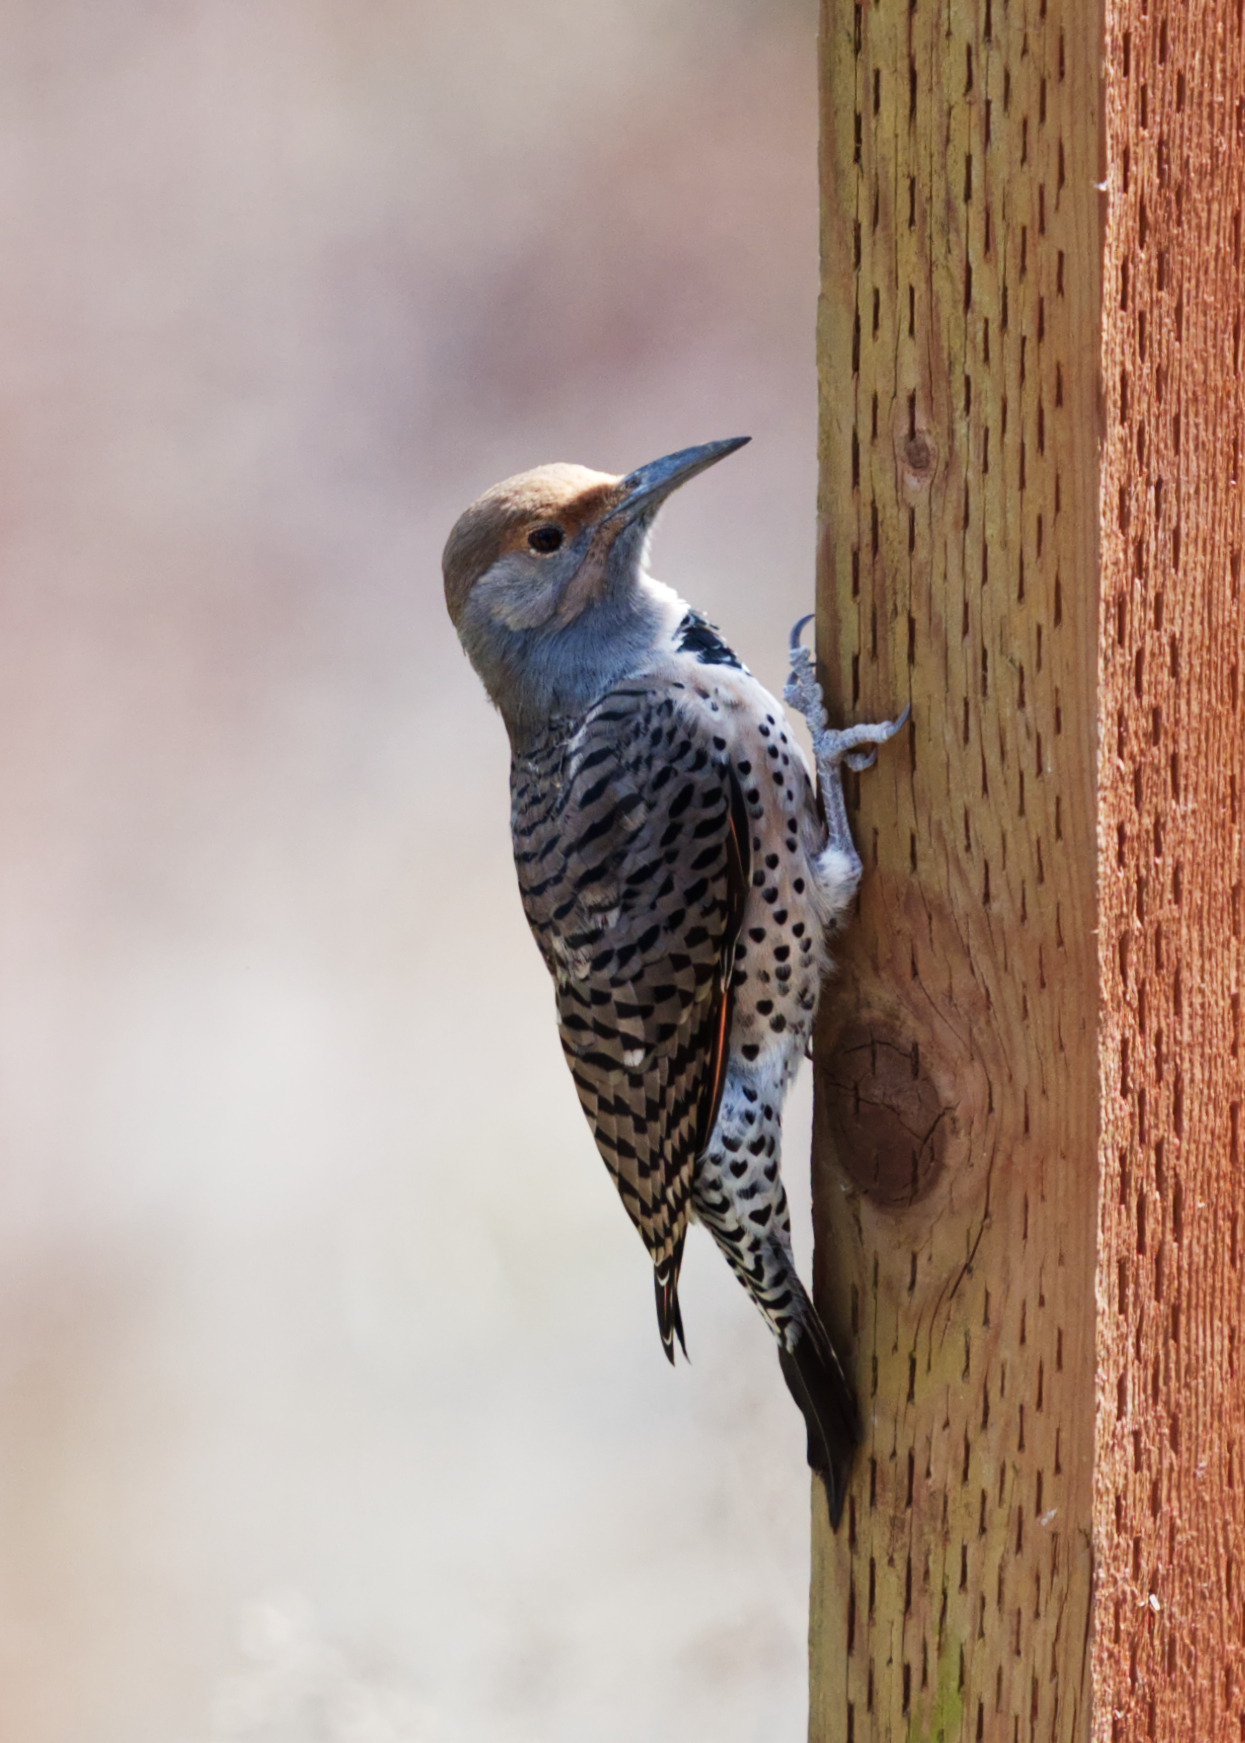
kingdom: Animalia
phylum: Chordata
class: Aves
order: Piciformes
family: Picidae
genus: Colaptes
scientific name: Colaptes auratus
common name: Northern flicker
